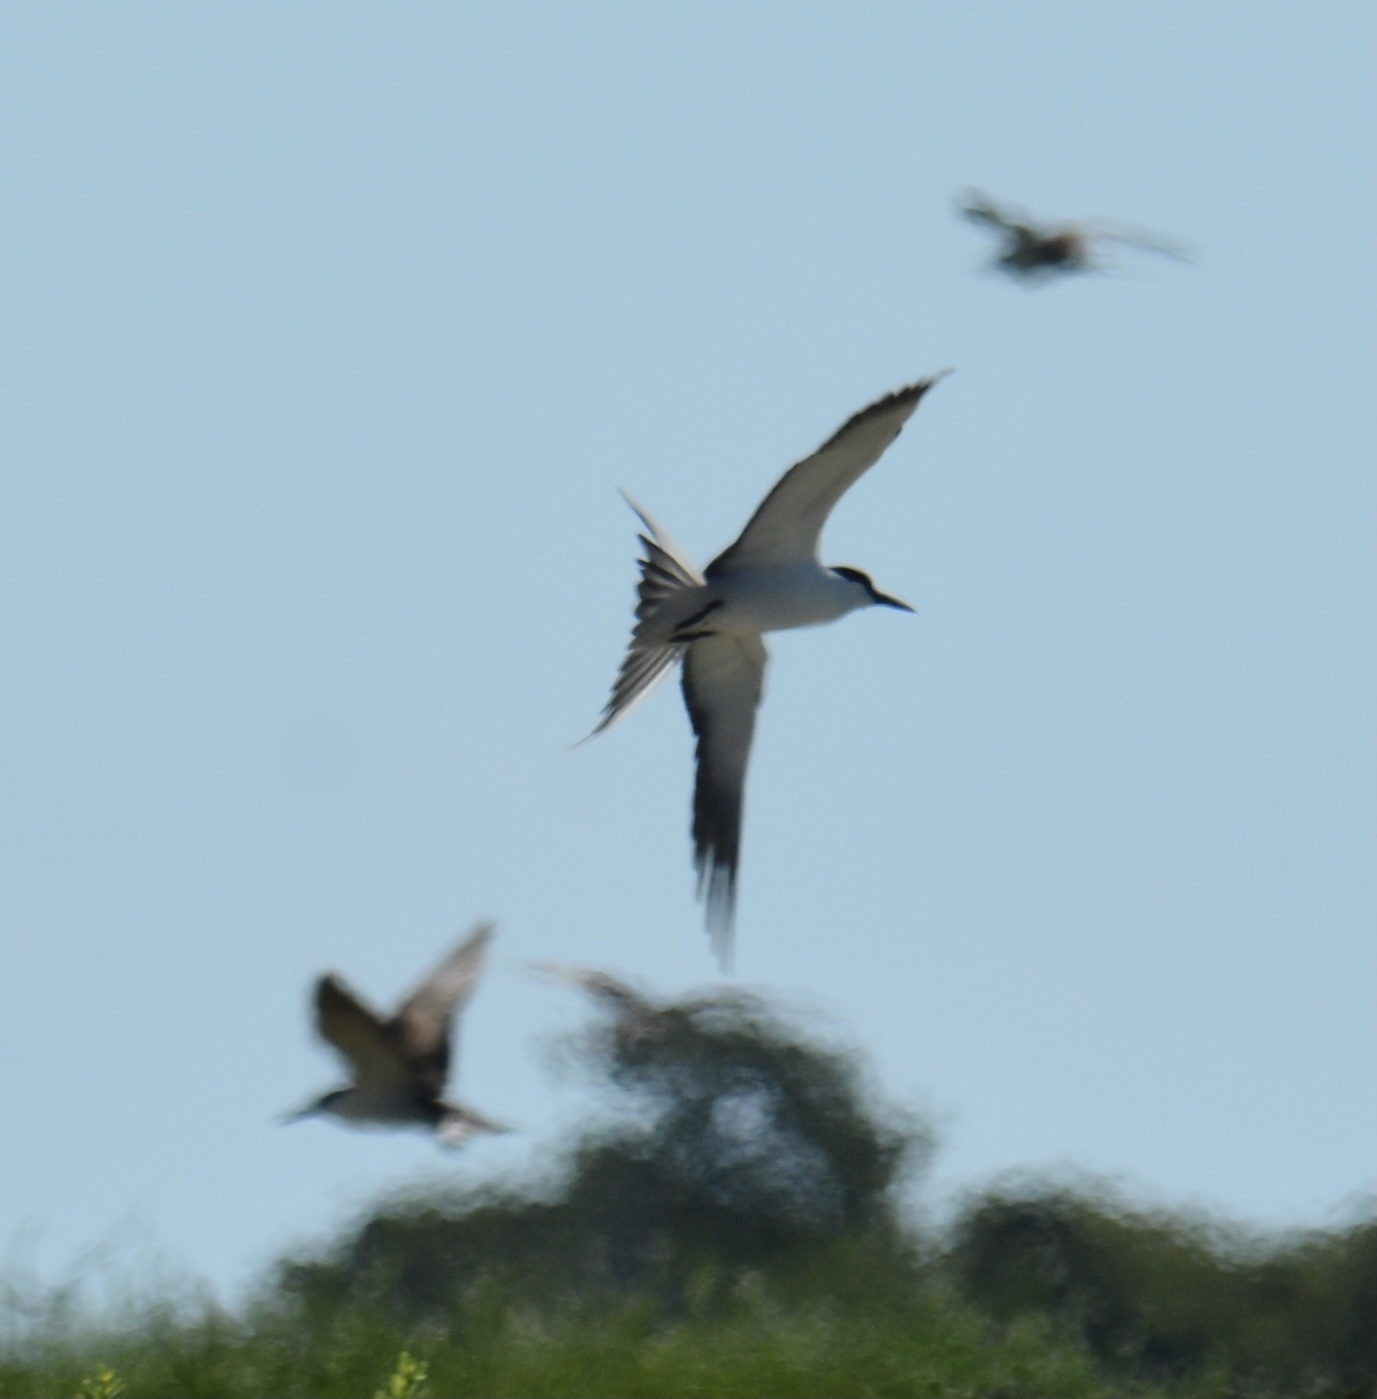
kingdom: Animalia
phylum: Chordata
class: Aves
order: Charadriiformes
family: Laridae
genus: Onychoprion
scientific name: Onychoprion fuscatus
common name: Sooty tern
